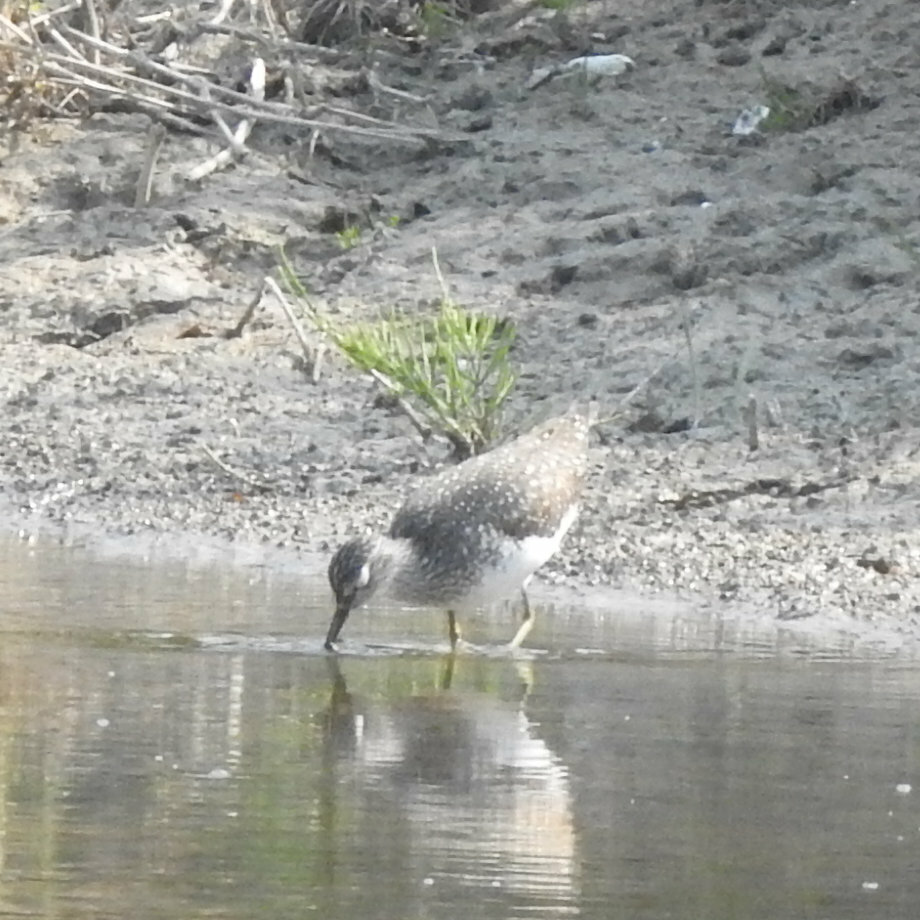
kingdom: Animalia
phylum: Chordata
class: Aves
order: Charadriiformes
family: Scolopacidae
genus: Tringa
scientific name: Tringa solitaria
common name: Solitary sandpiper
